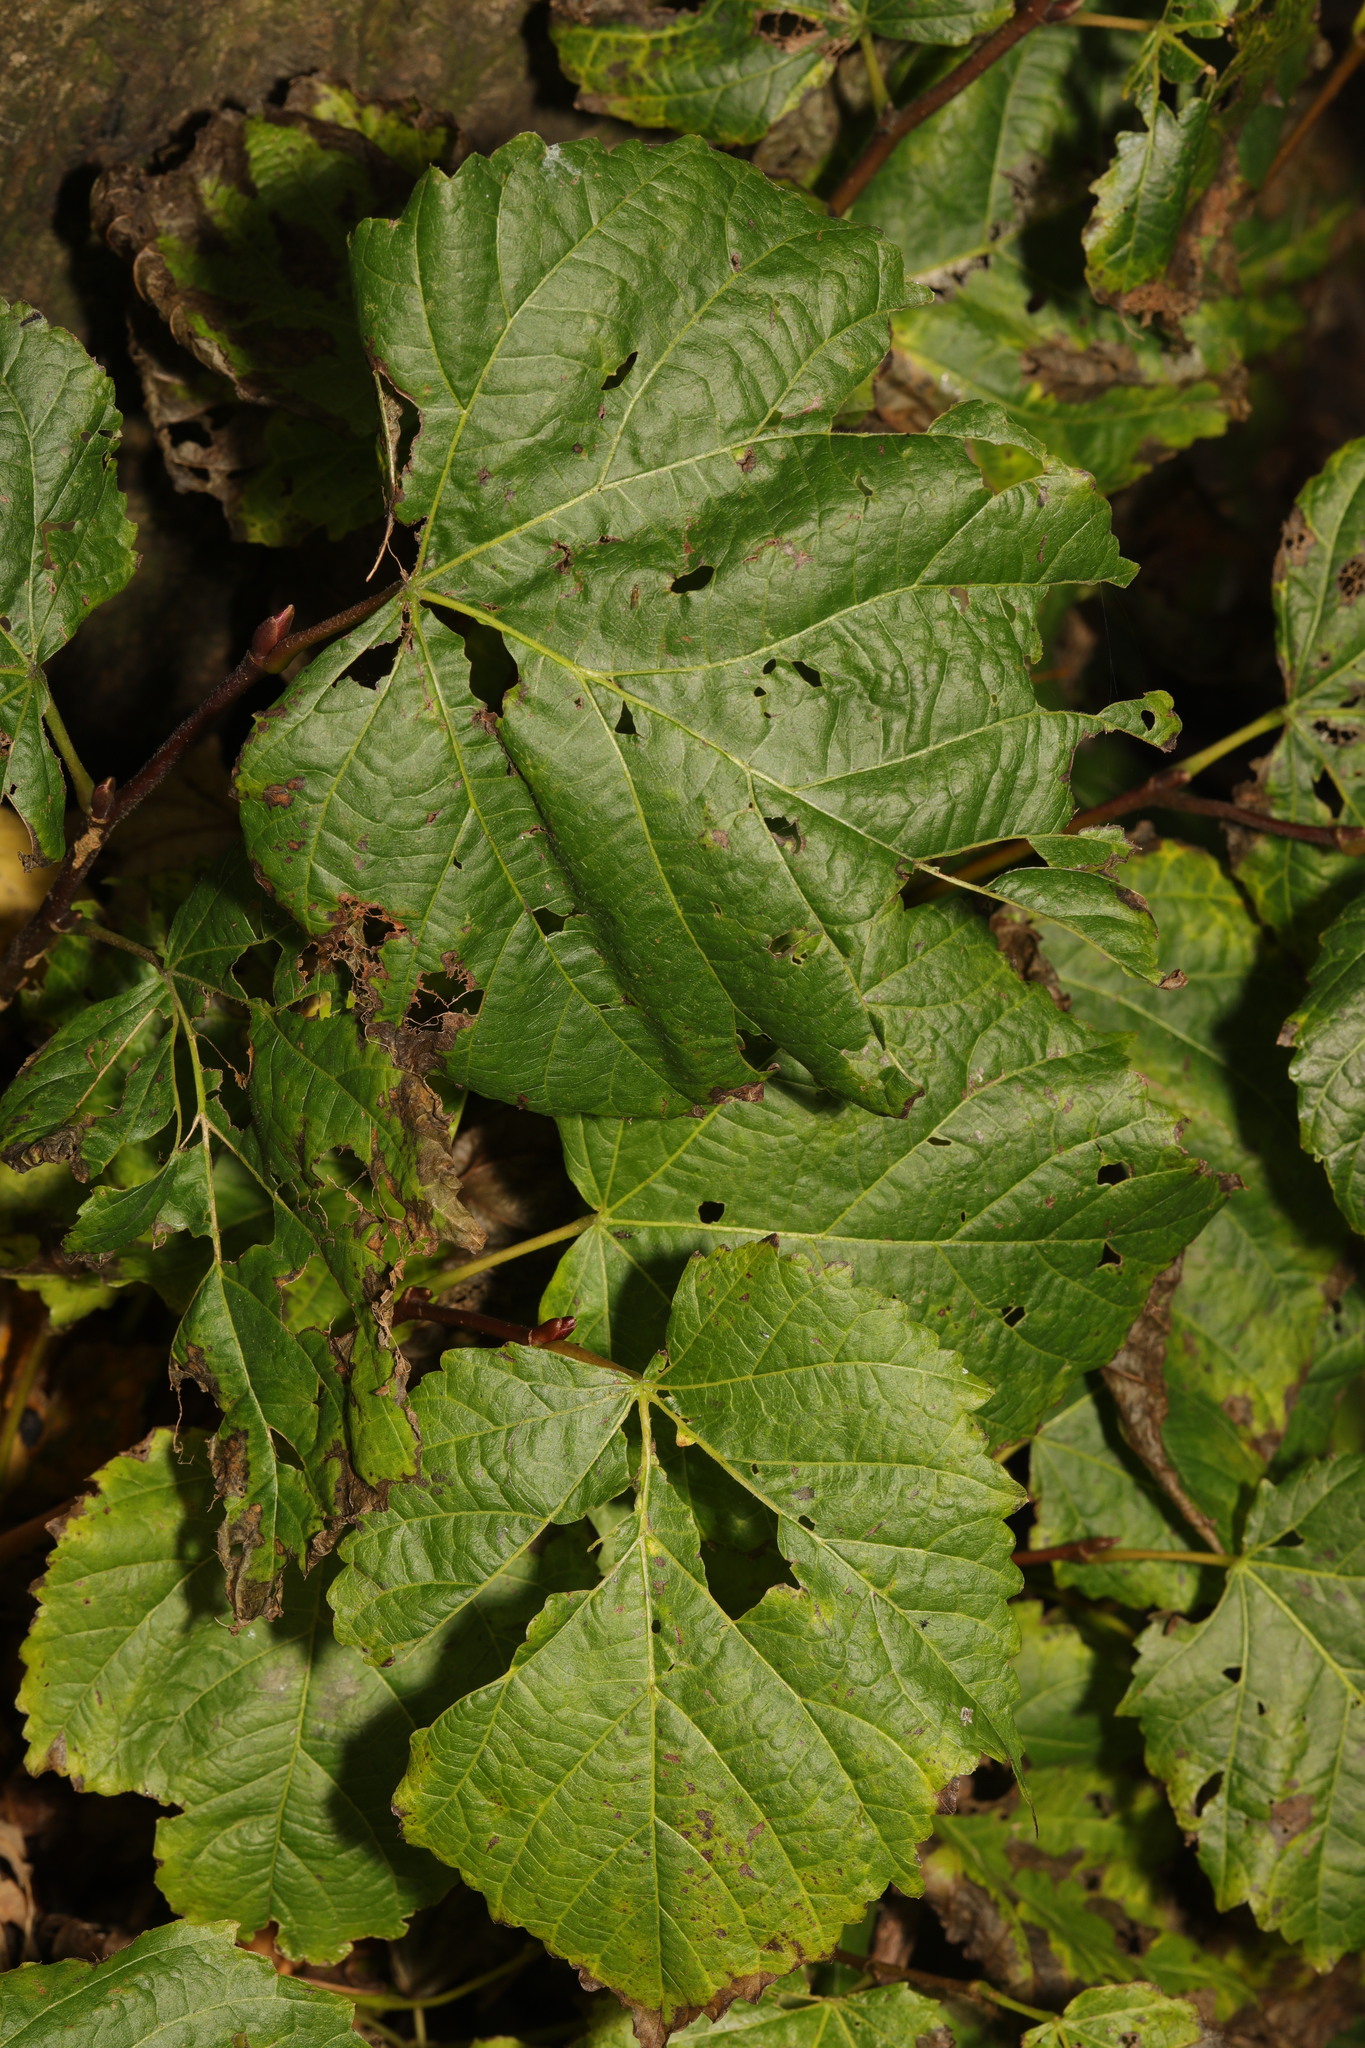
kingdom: Plantae
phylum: Tracheophyta
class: Magnoliopsida
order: Malvales
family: Malvaceae
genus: Tilia
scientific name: Tilia europaea
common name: European linden
